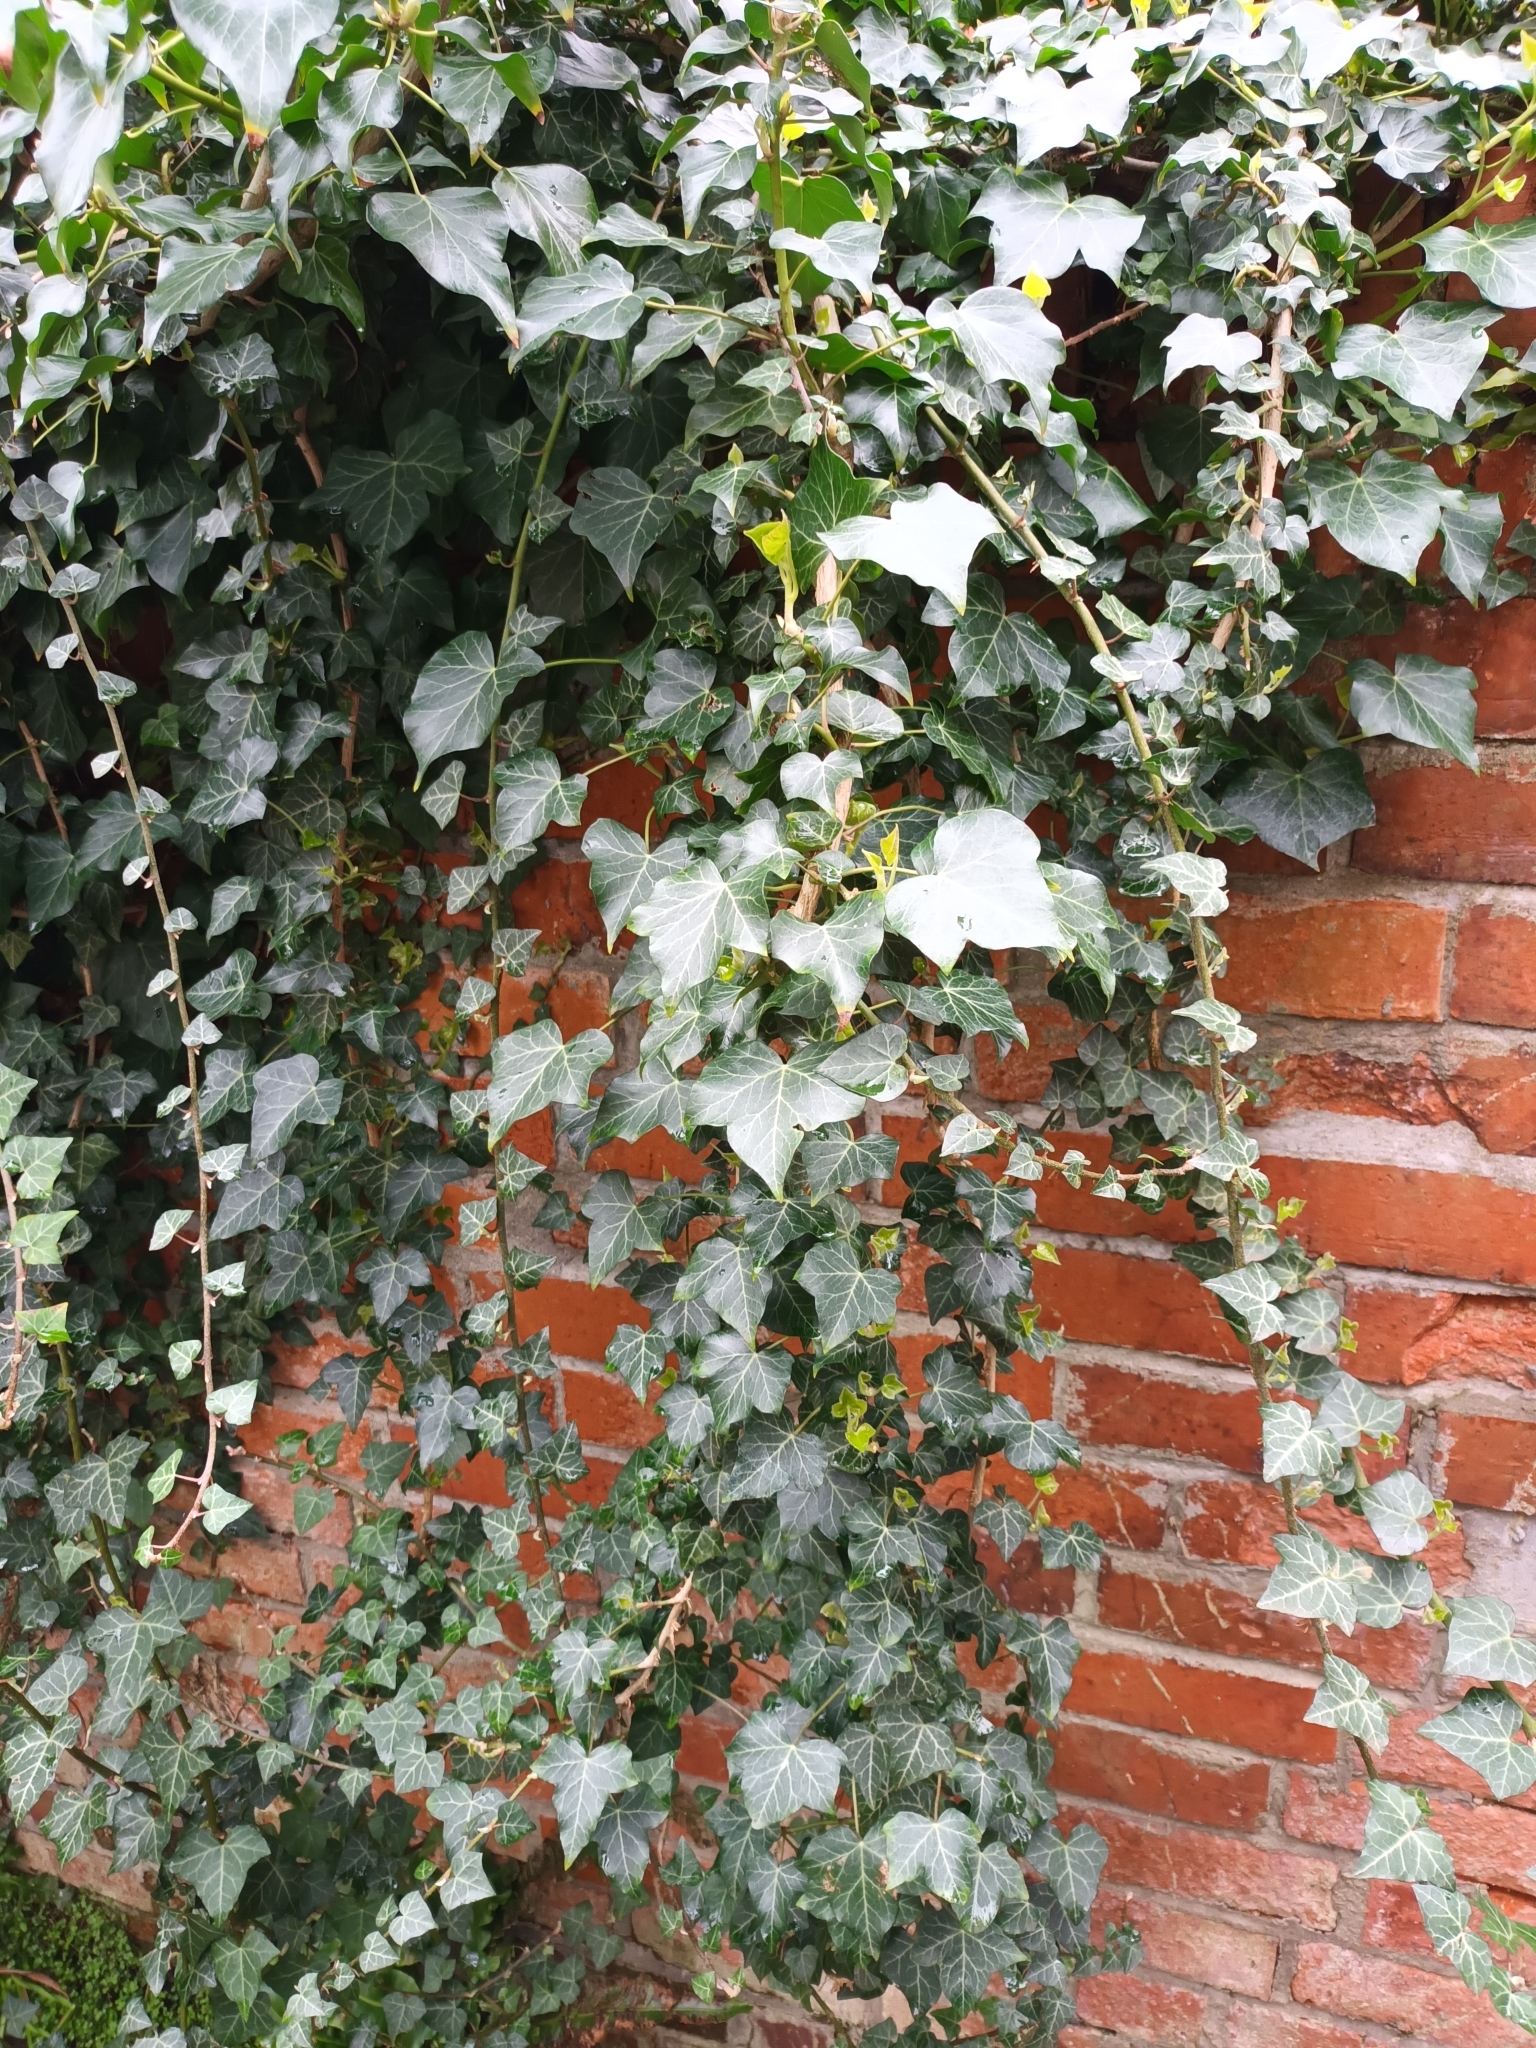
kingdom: Plantae
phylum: Tracheophyta
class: Magnoliopsida
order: Apiales
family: Araliaceae
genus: Hedera
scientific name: Hedera helix
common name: Ivy
